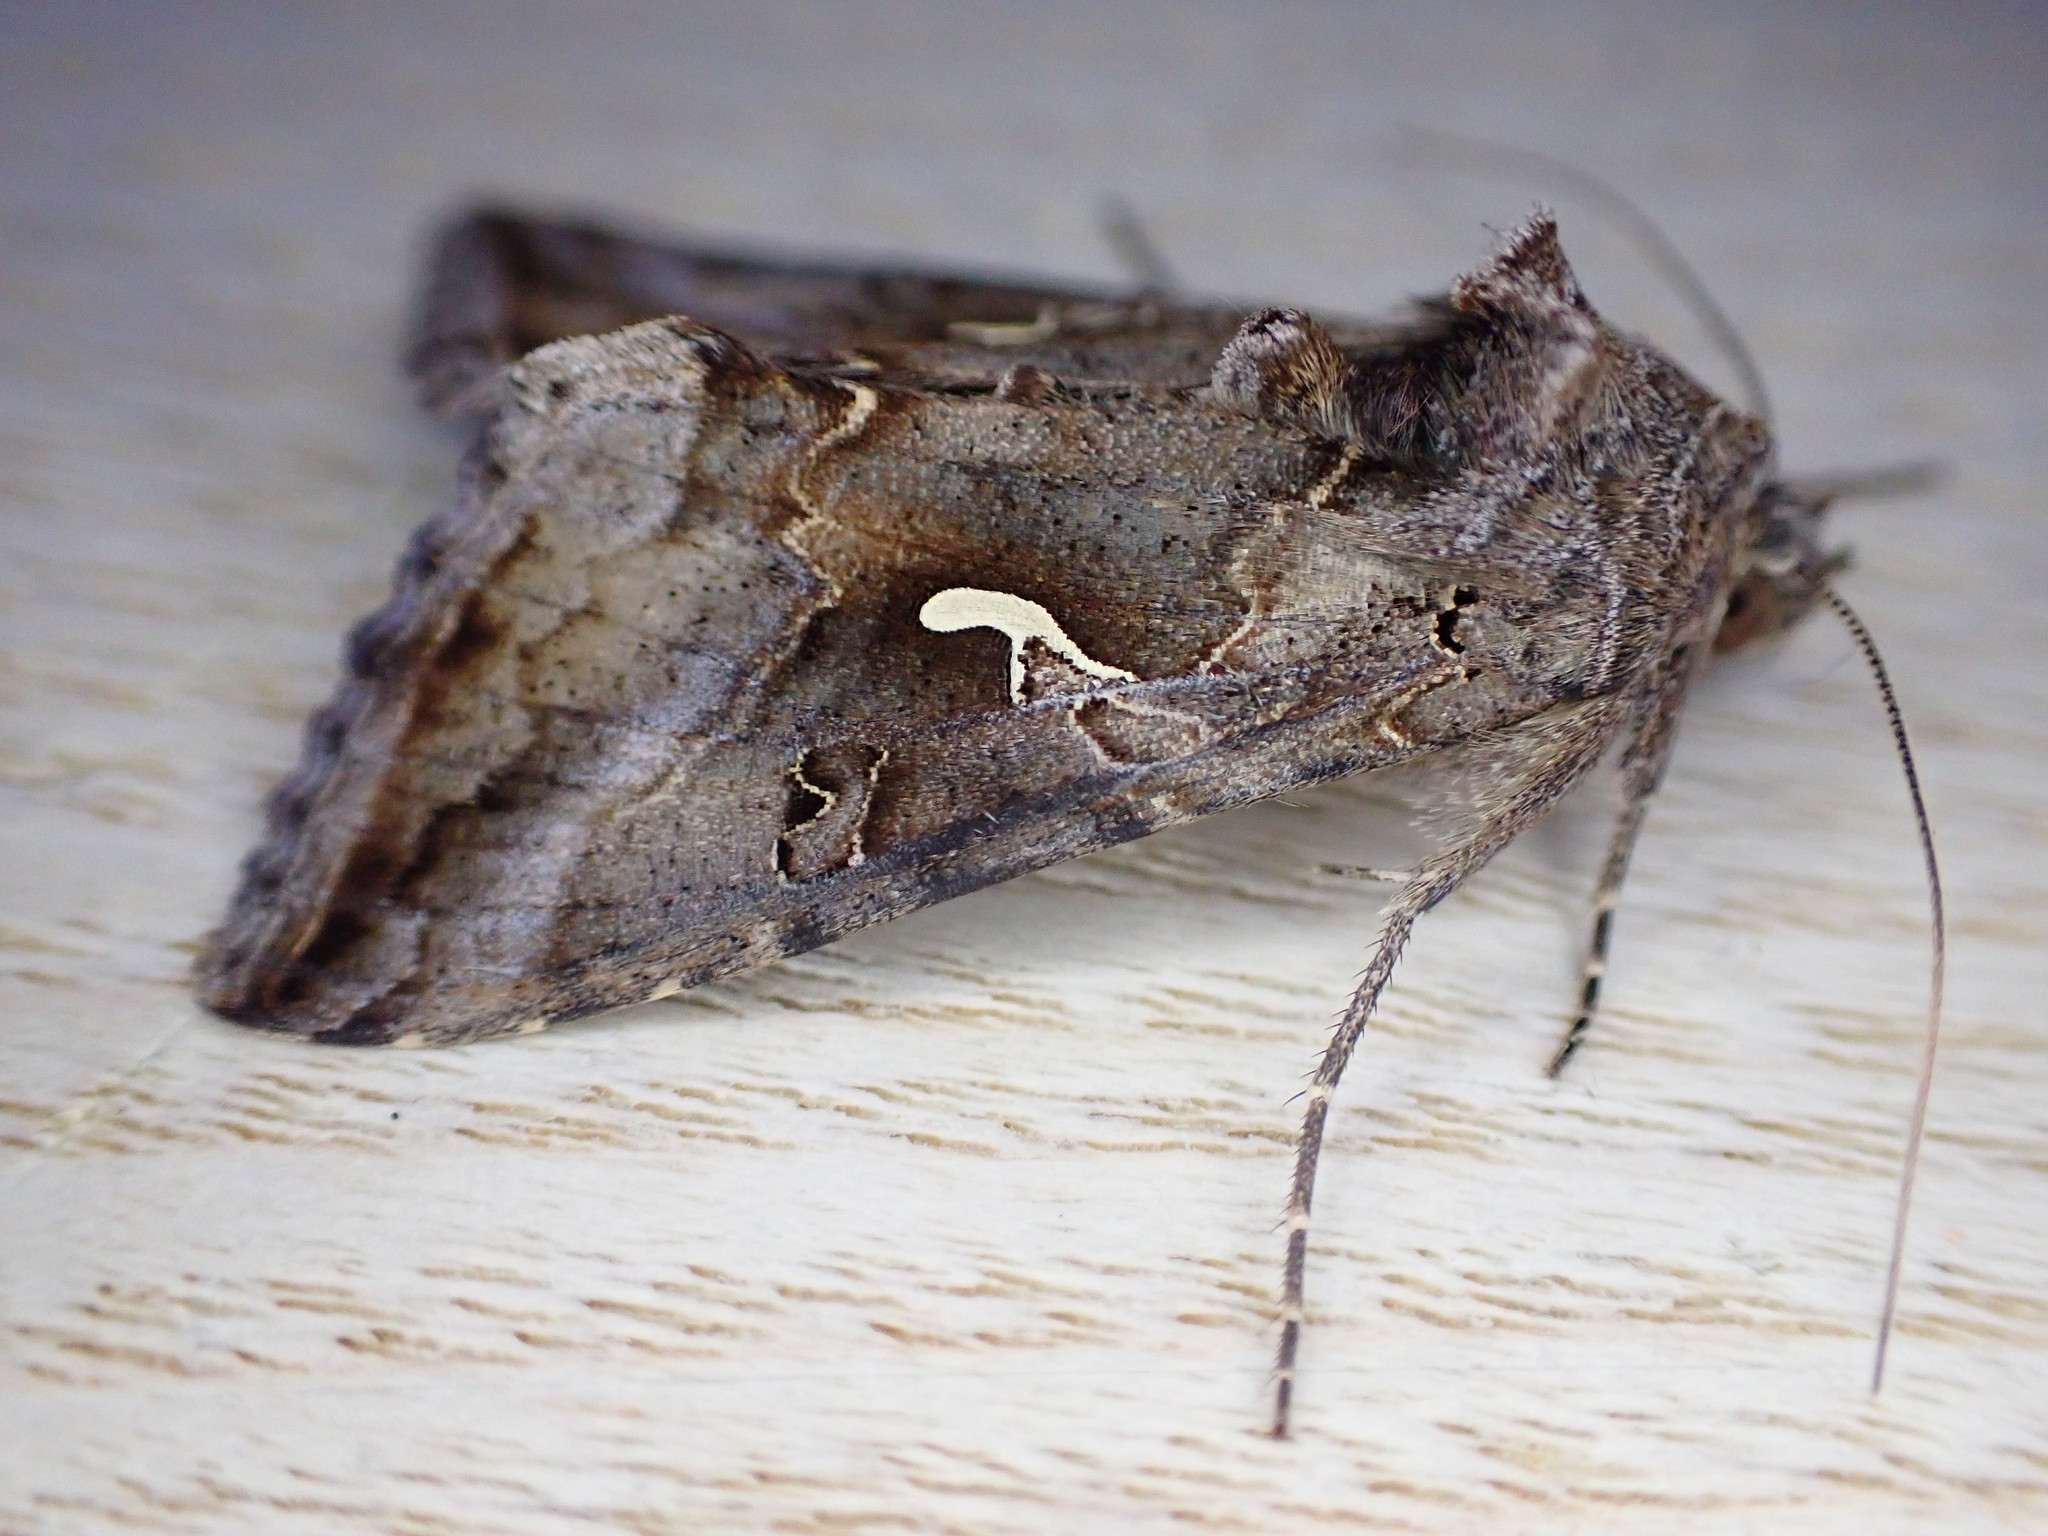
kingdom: Animalia
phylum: Arthropoda
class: Insecta
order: Lepidoptera
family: Noctuidae
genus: Autographa
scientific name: Autographa gamma
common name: Silver y
